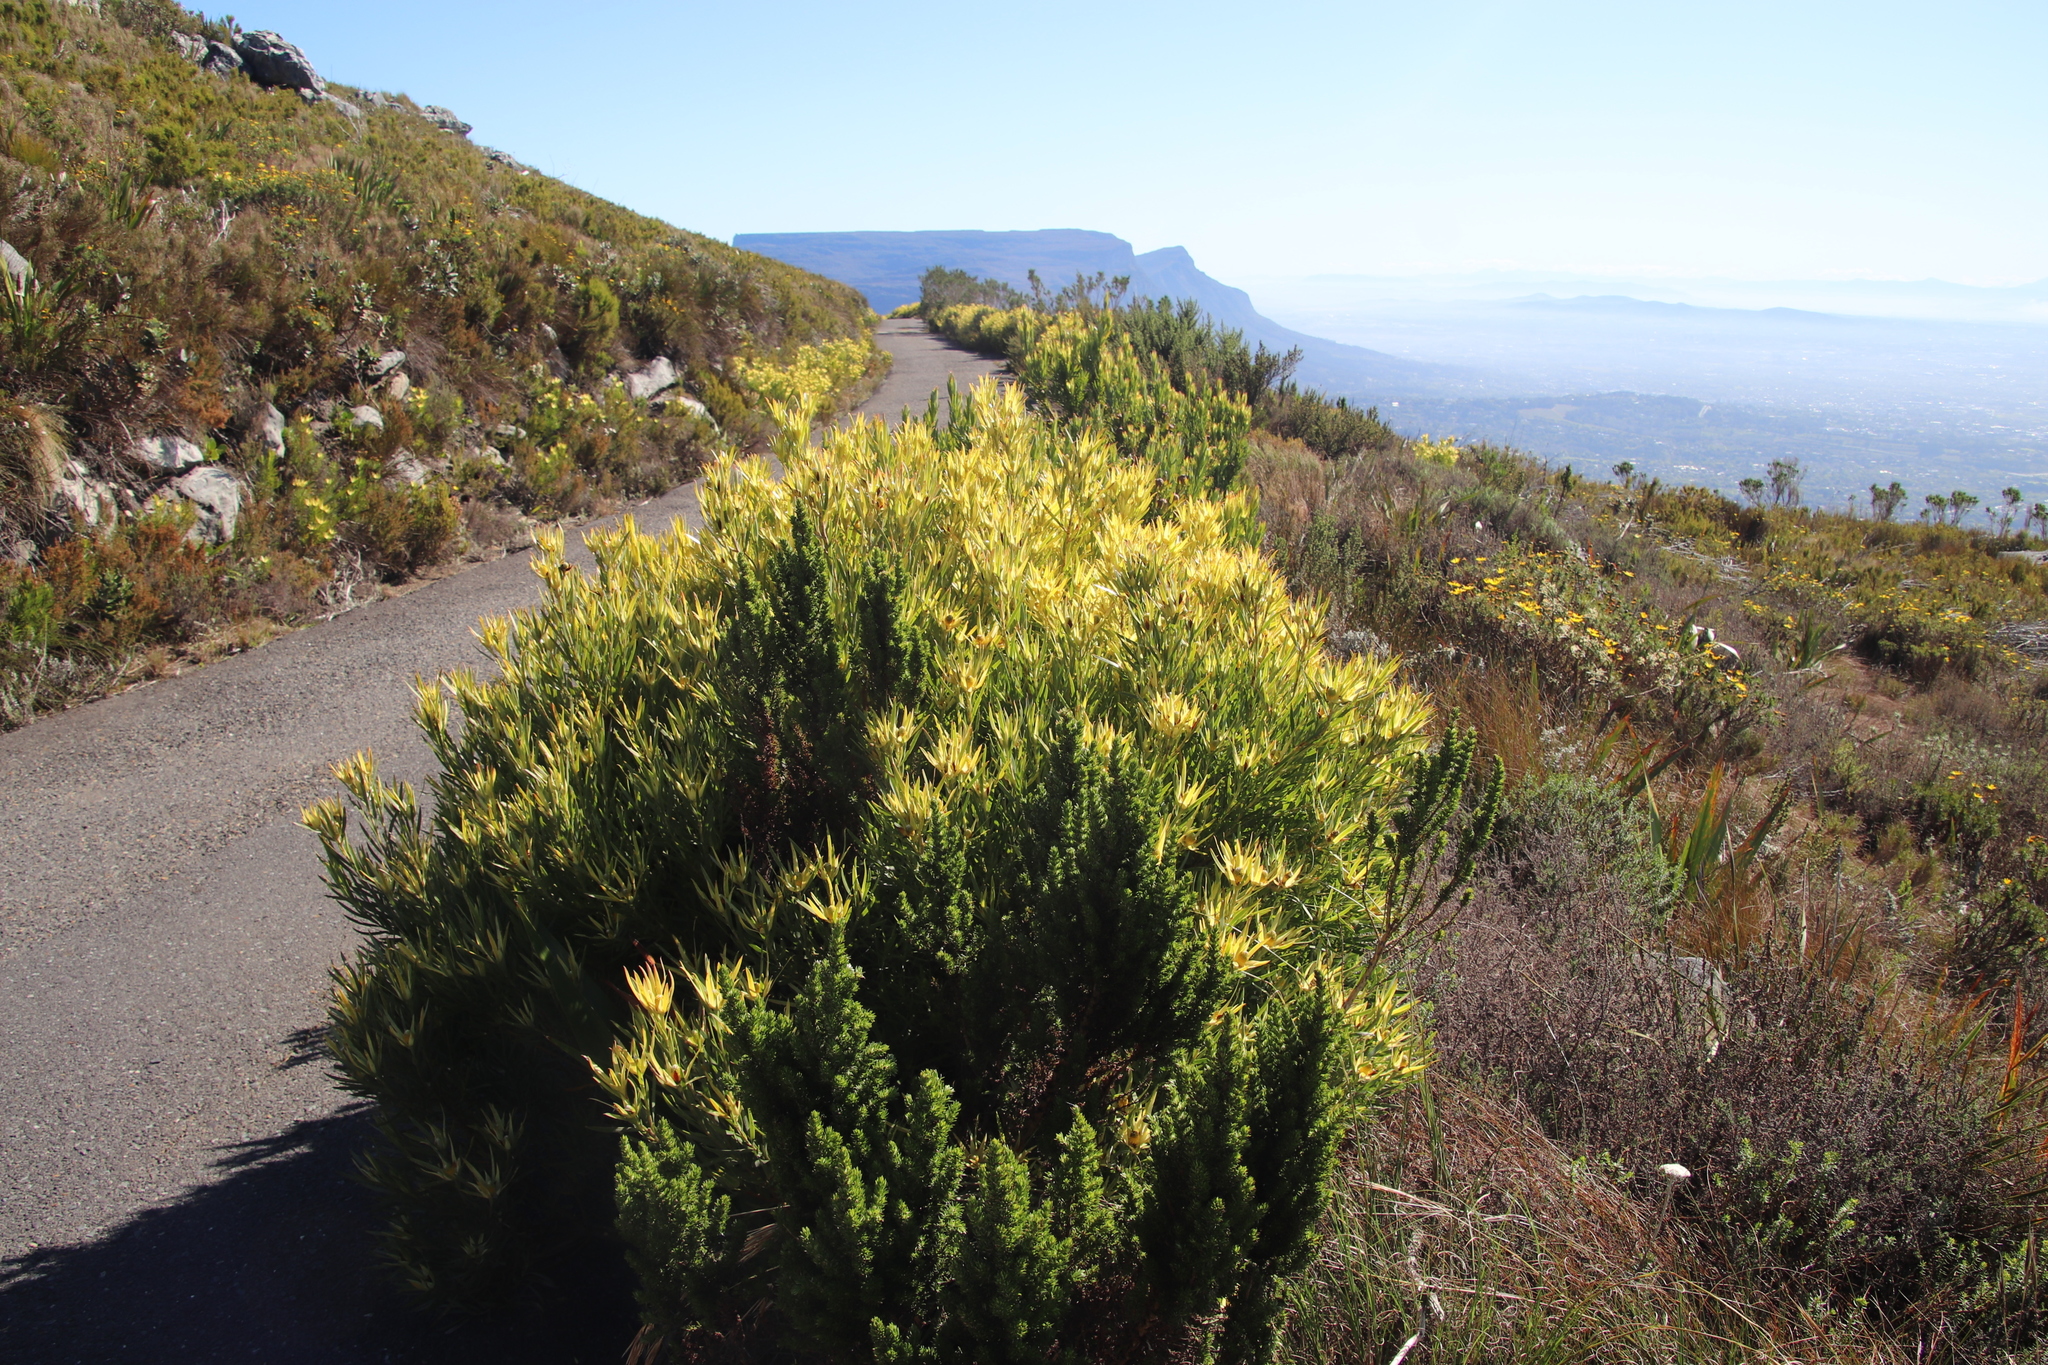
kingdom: Plantae
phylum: Tracheophyta
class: Magnoliopsida
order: Proteales
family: Proteaceae
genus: Leucadendron
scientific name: Leucadendron xanthoconus
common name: Sickle-leaf conebush
